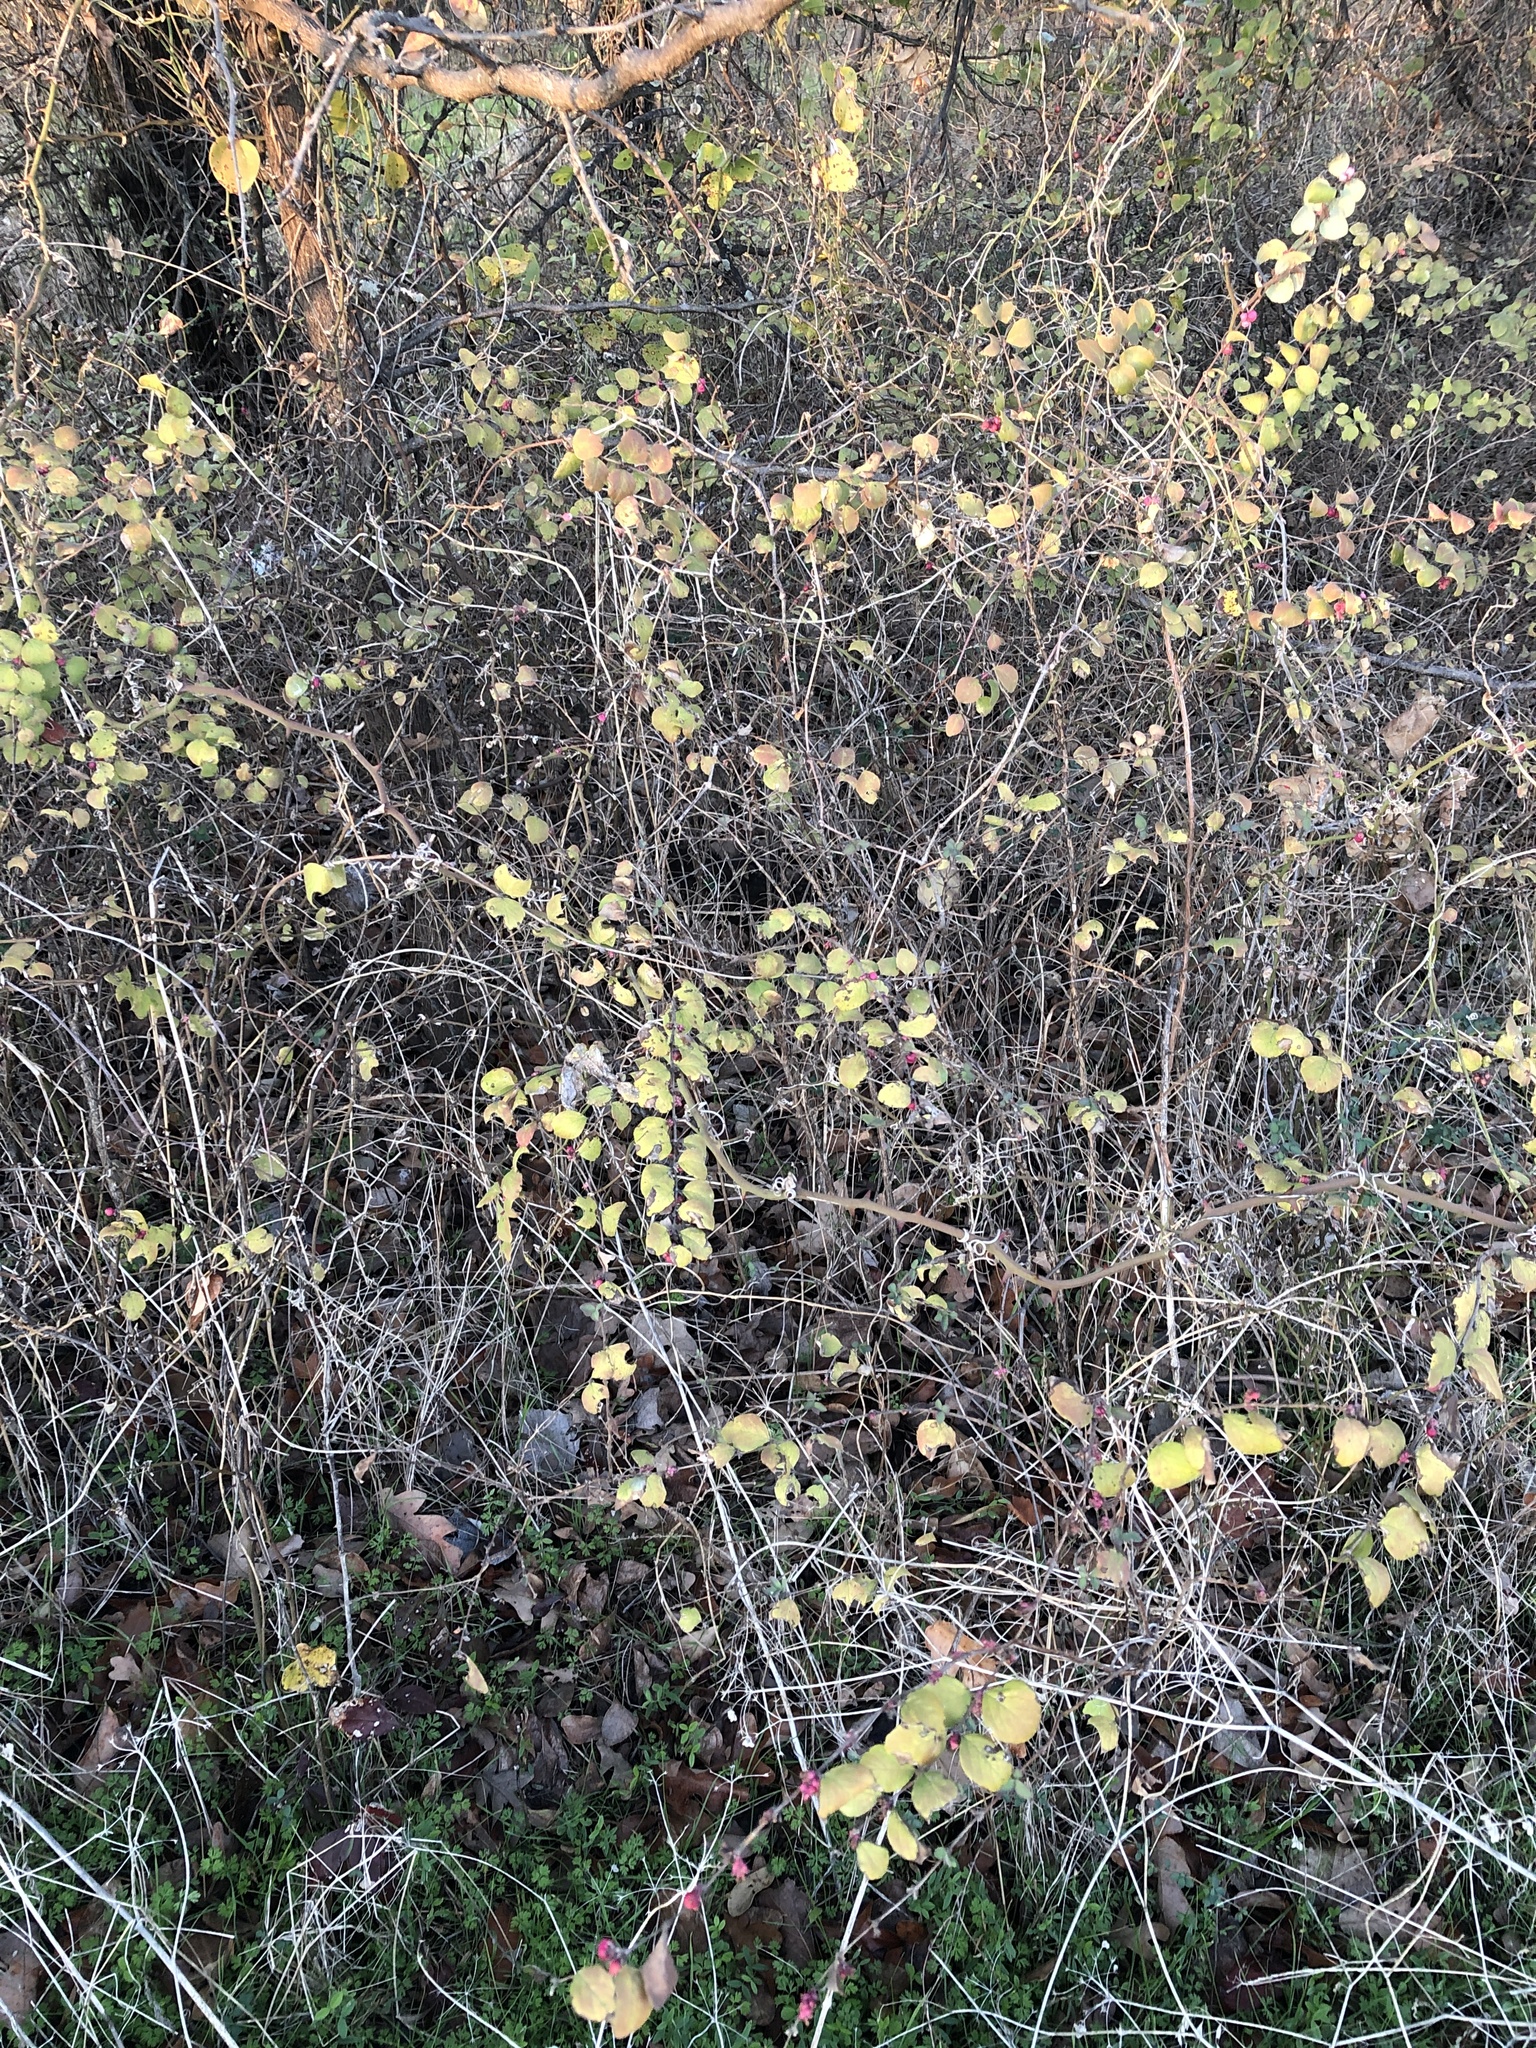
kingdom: Plantae
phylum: Tracheophyta
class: Magnoliopsida
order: Dipsacales
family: Caprifoliaceae
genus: Symphoricarpos
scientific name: Symphoricarpos orbiculatus
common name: Coralberry
